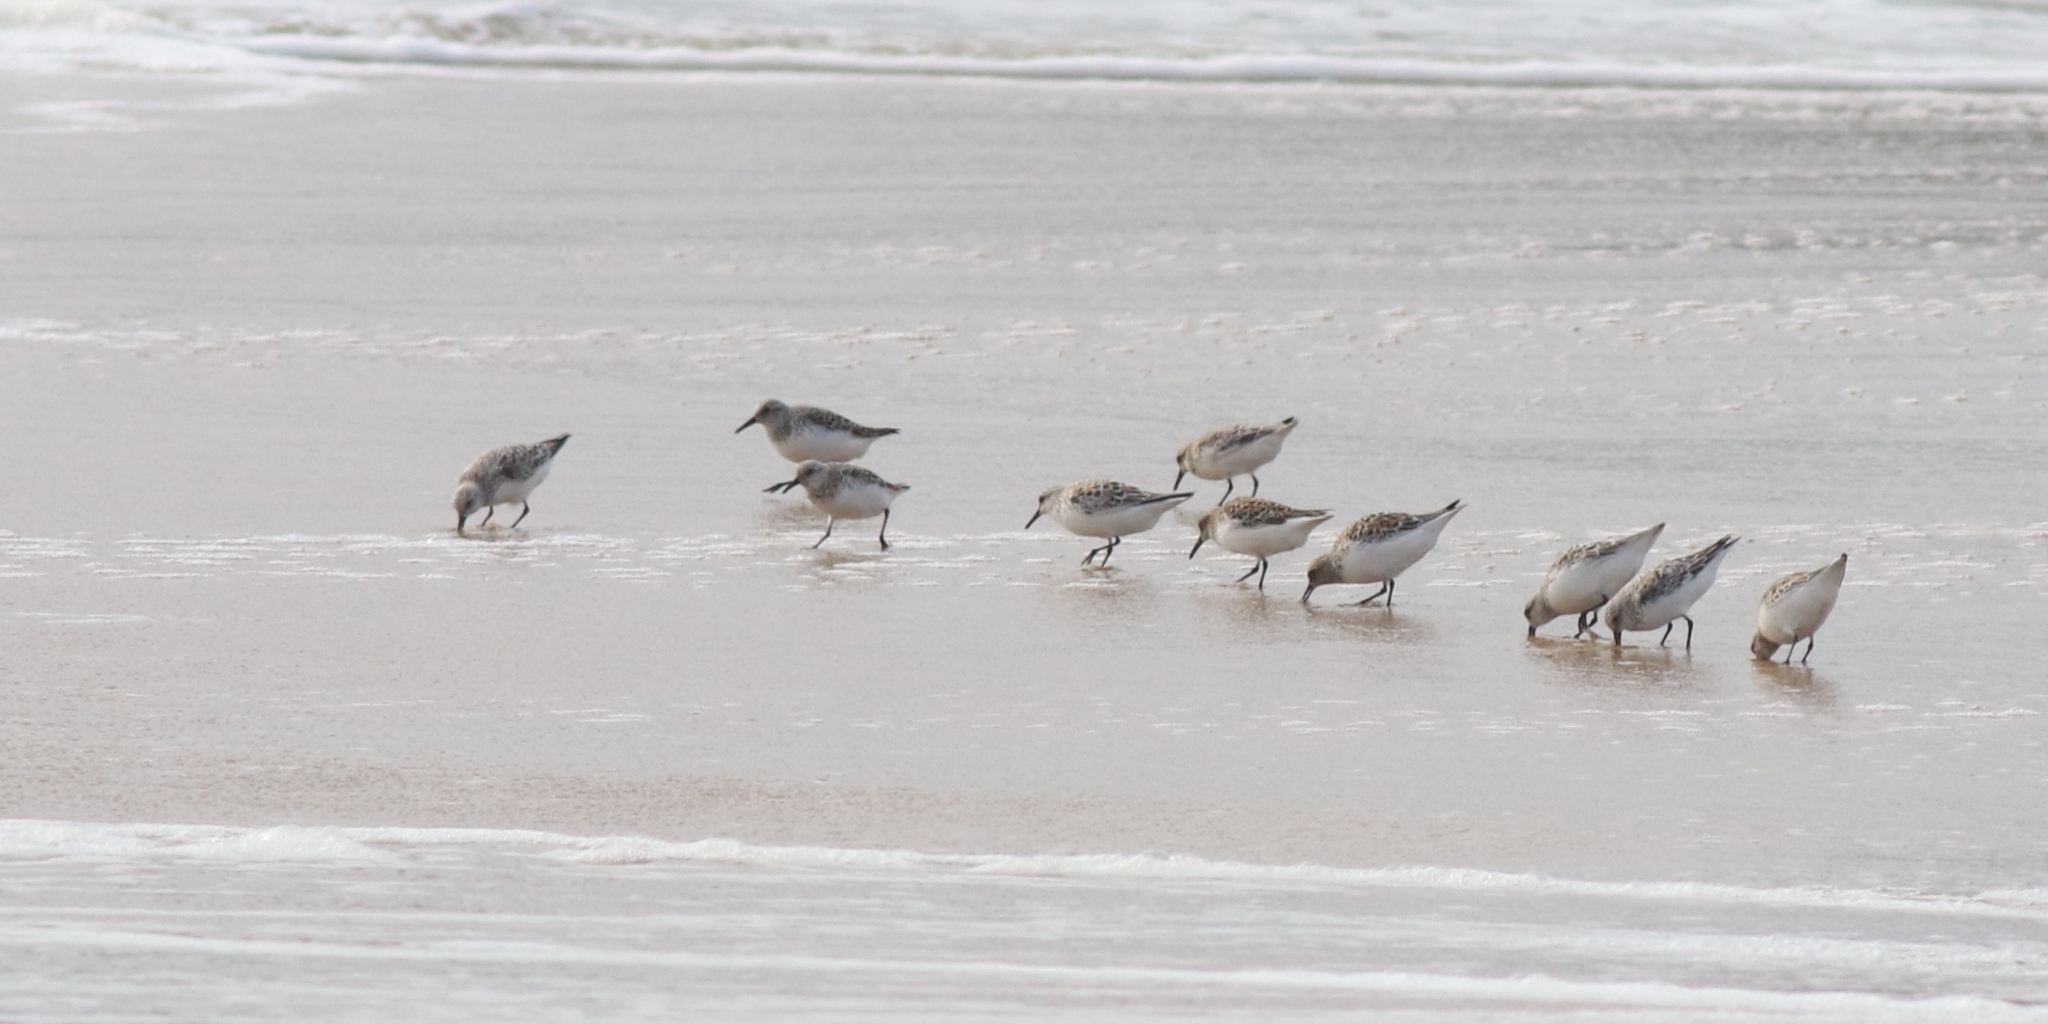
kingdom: Animalia
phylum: Chordata
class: Aves
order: Charadriiformes
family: Scolopacidae
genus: Calidris
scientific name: Calidris alba
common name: Sanderling
